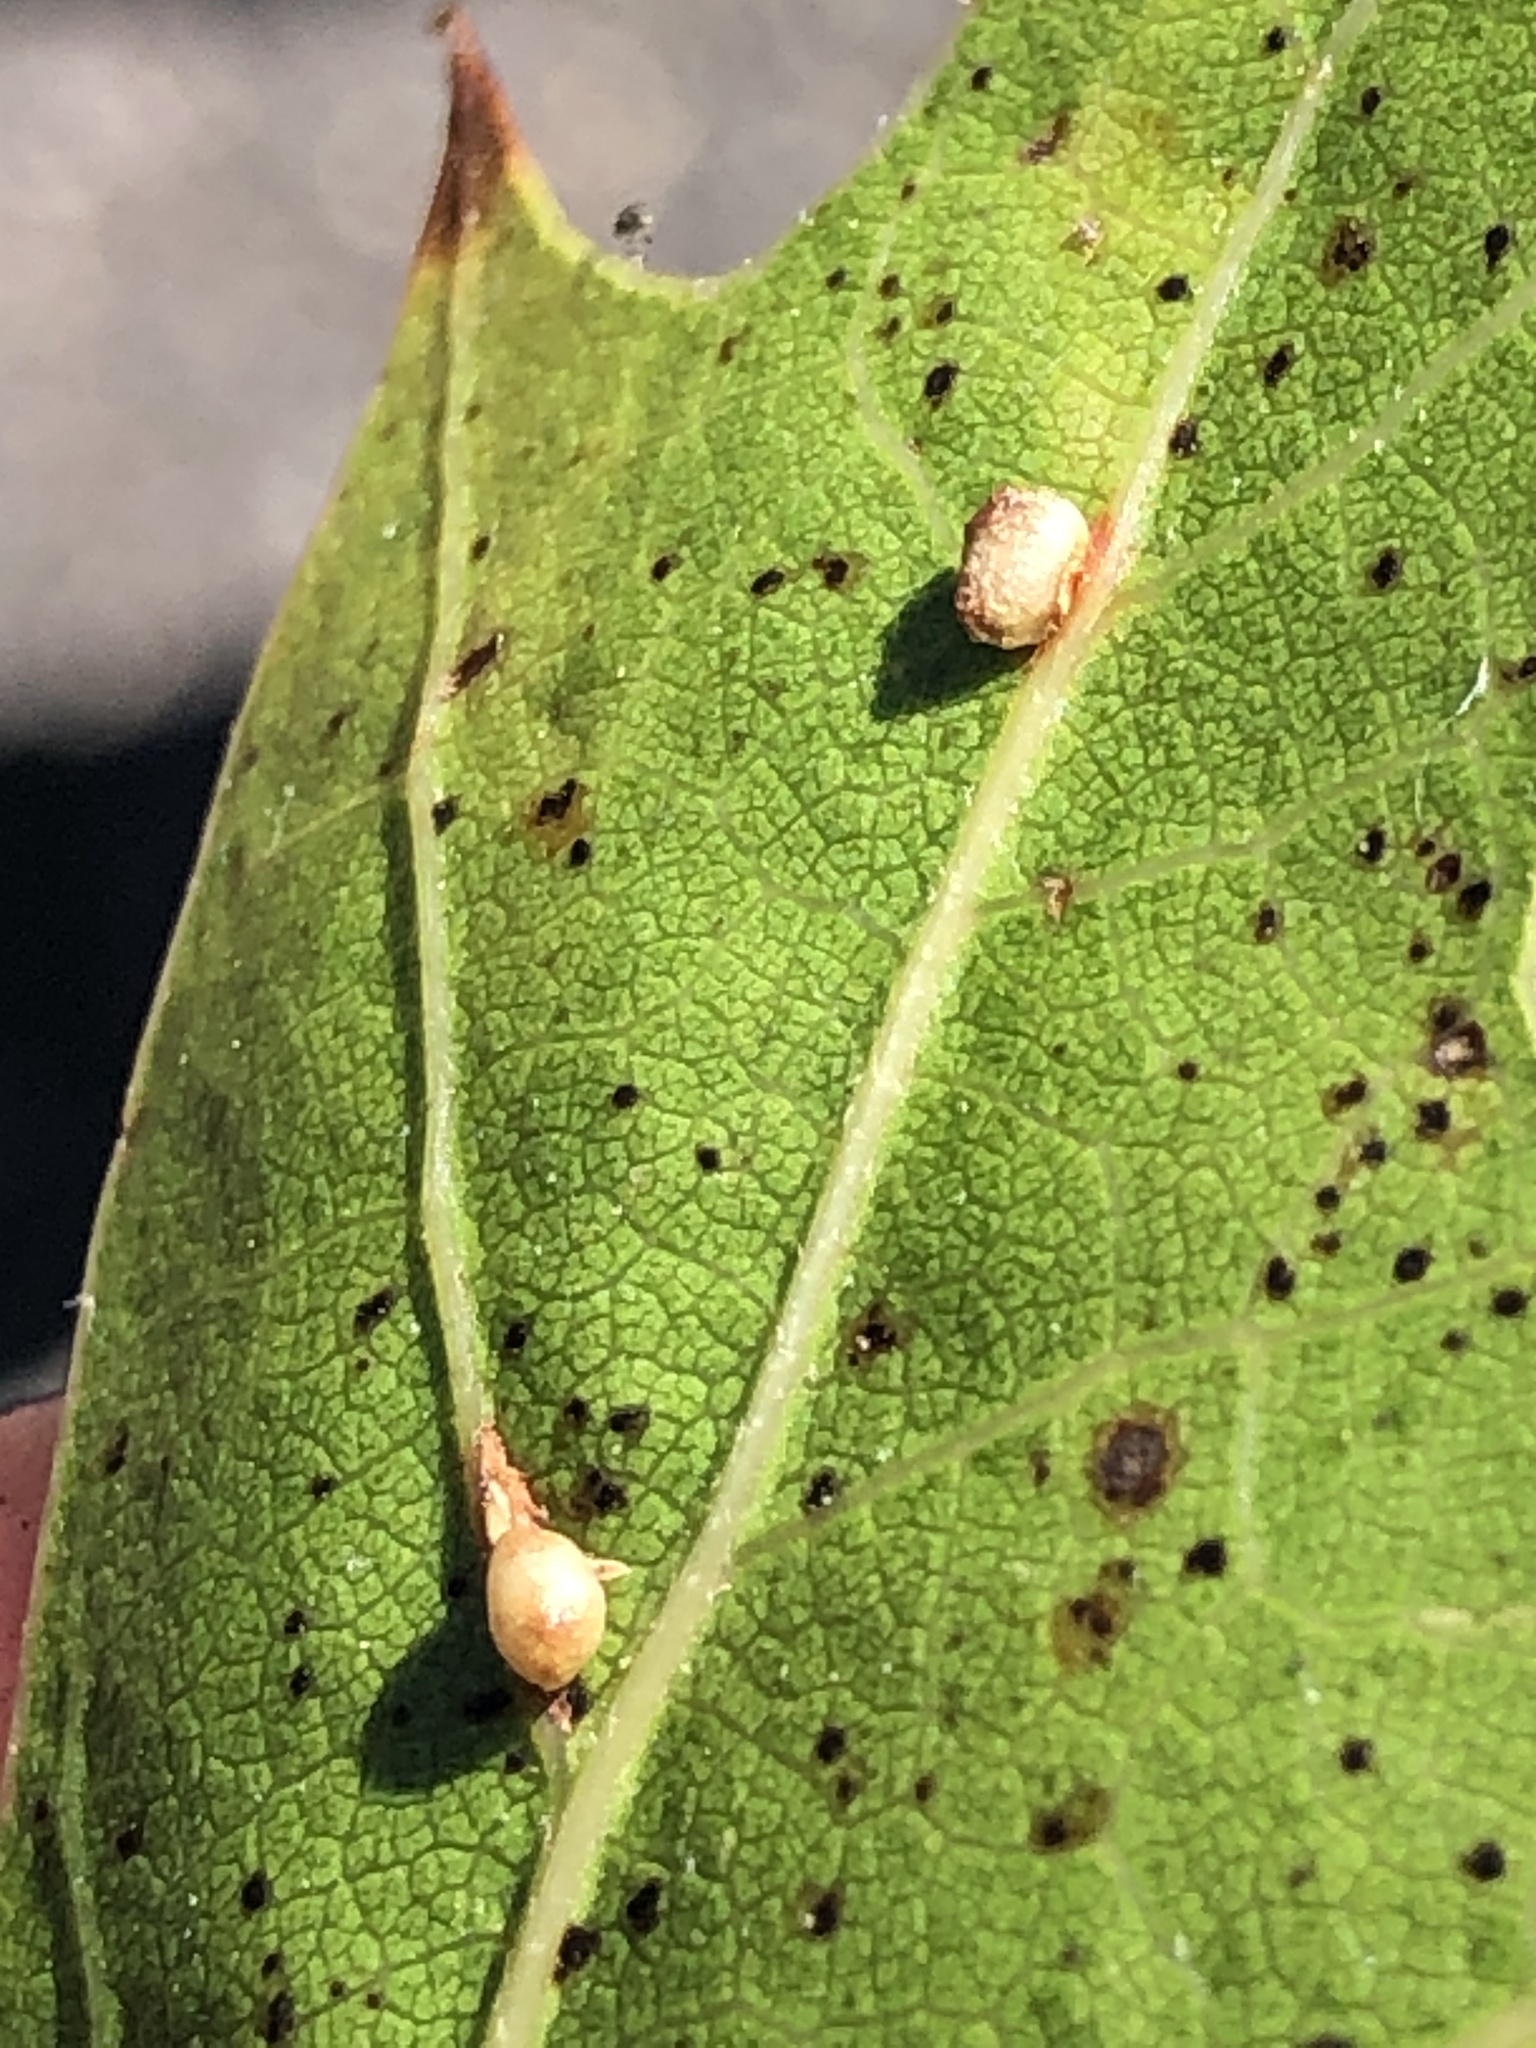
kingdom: Animalia
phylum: Arthropoda
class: Insecta
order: Hymenoptera
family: Cynipidae
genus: Dryocosmus
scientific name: Dryocosmus
